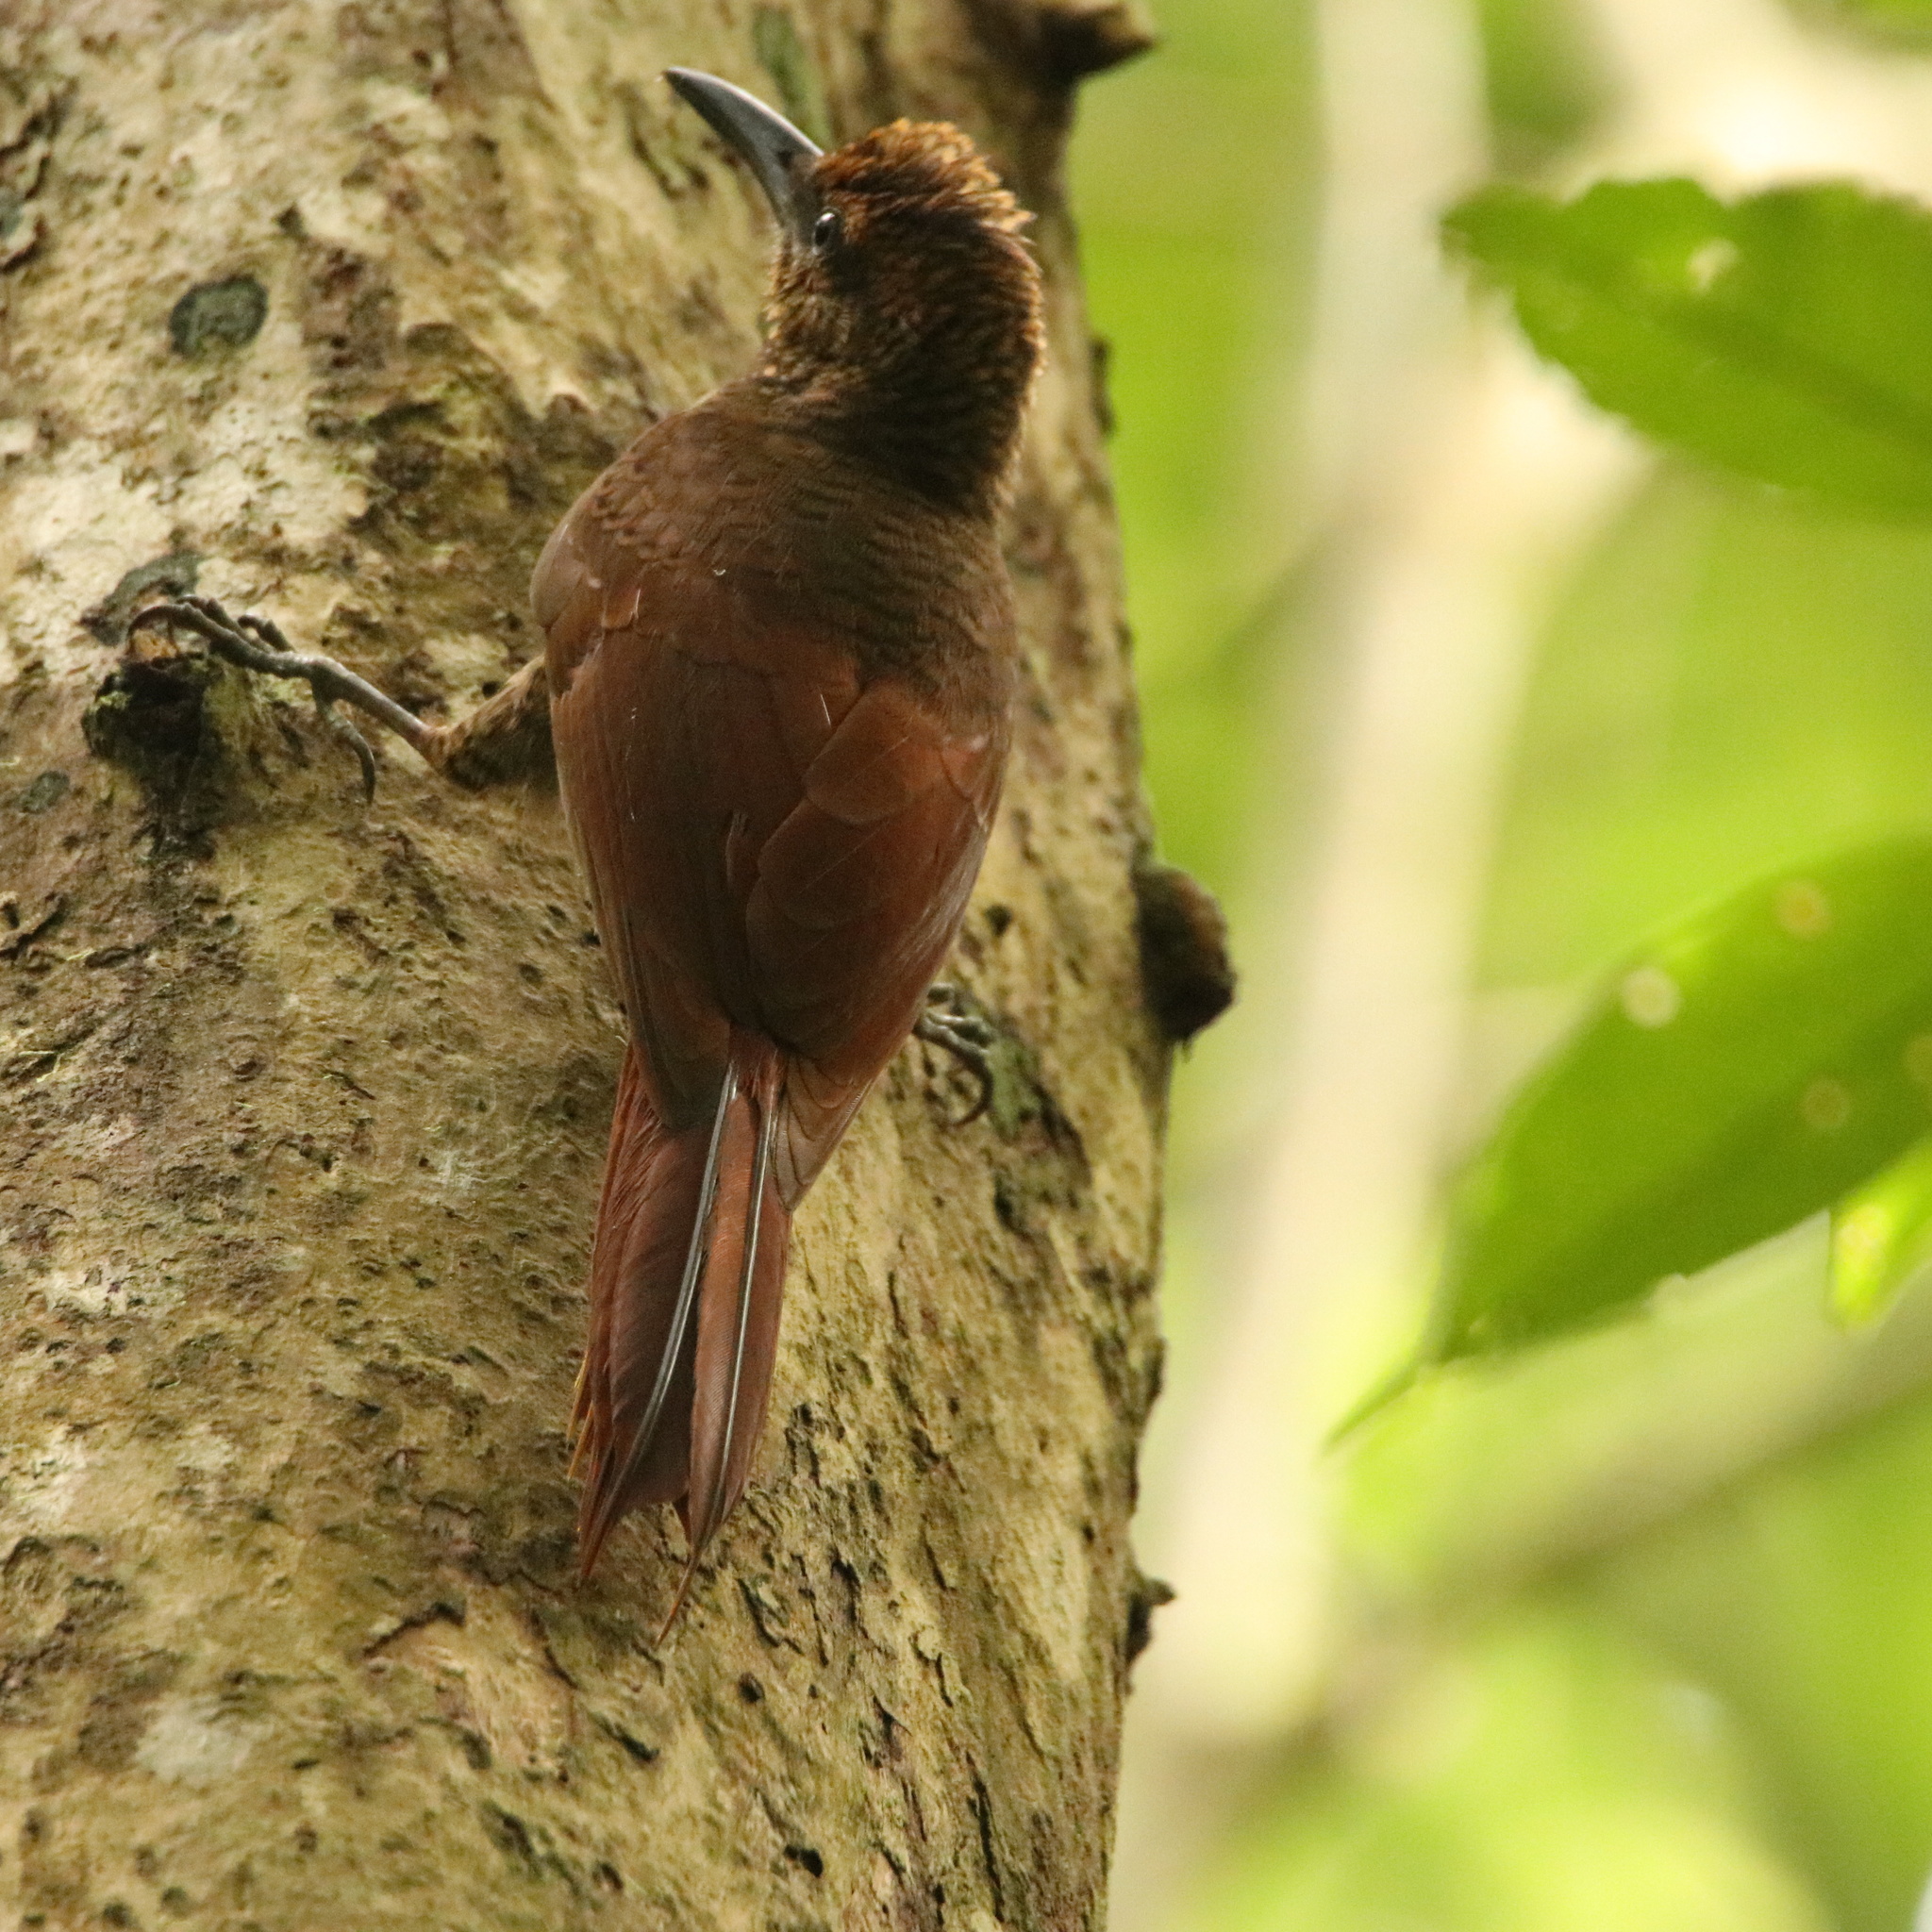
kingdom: Animalia
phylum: Chordata
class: Aves
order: Passeriformes
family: Furnariidae
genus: Dendrocolaptes
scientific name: Dendrocolaptes sanctithomae
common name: Northern barred-woodcreeper
